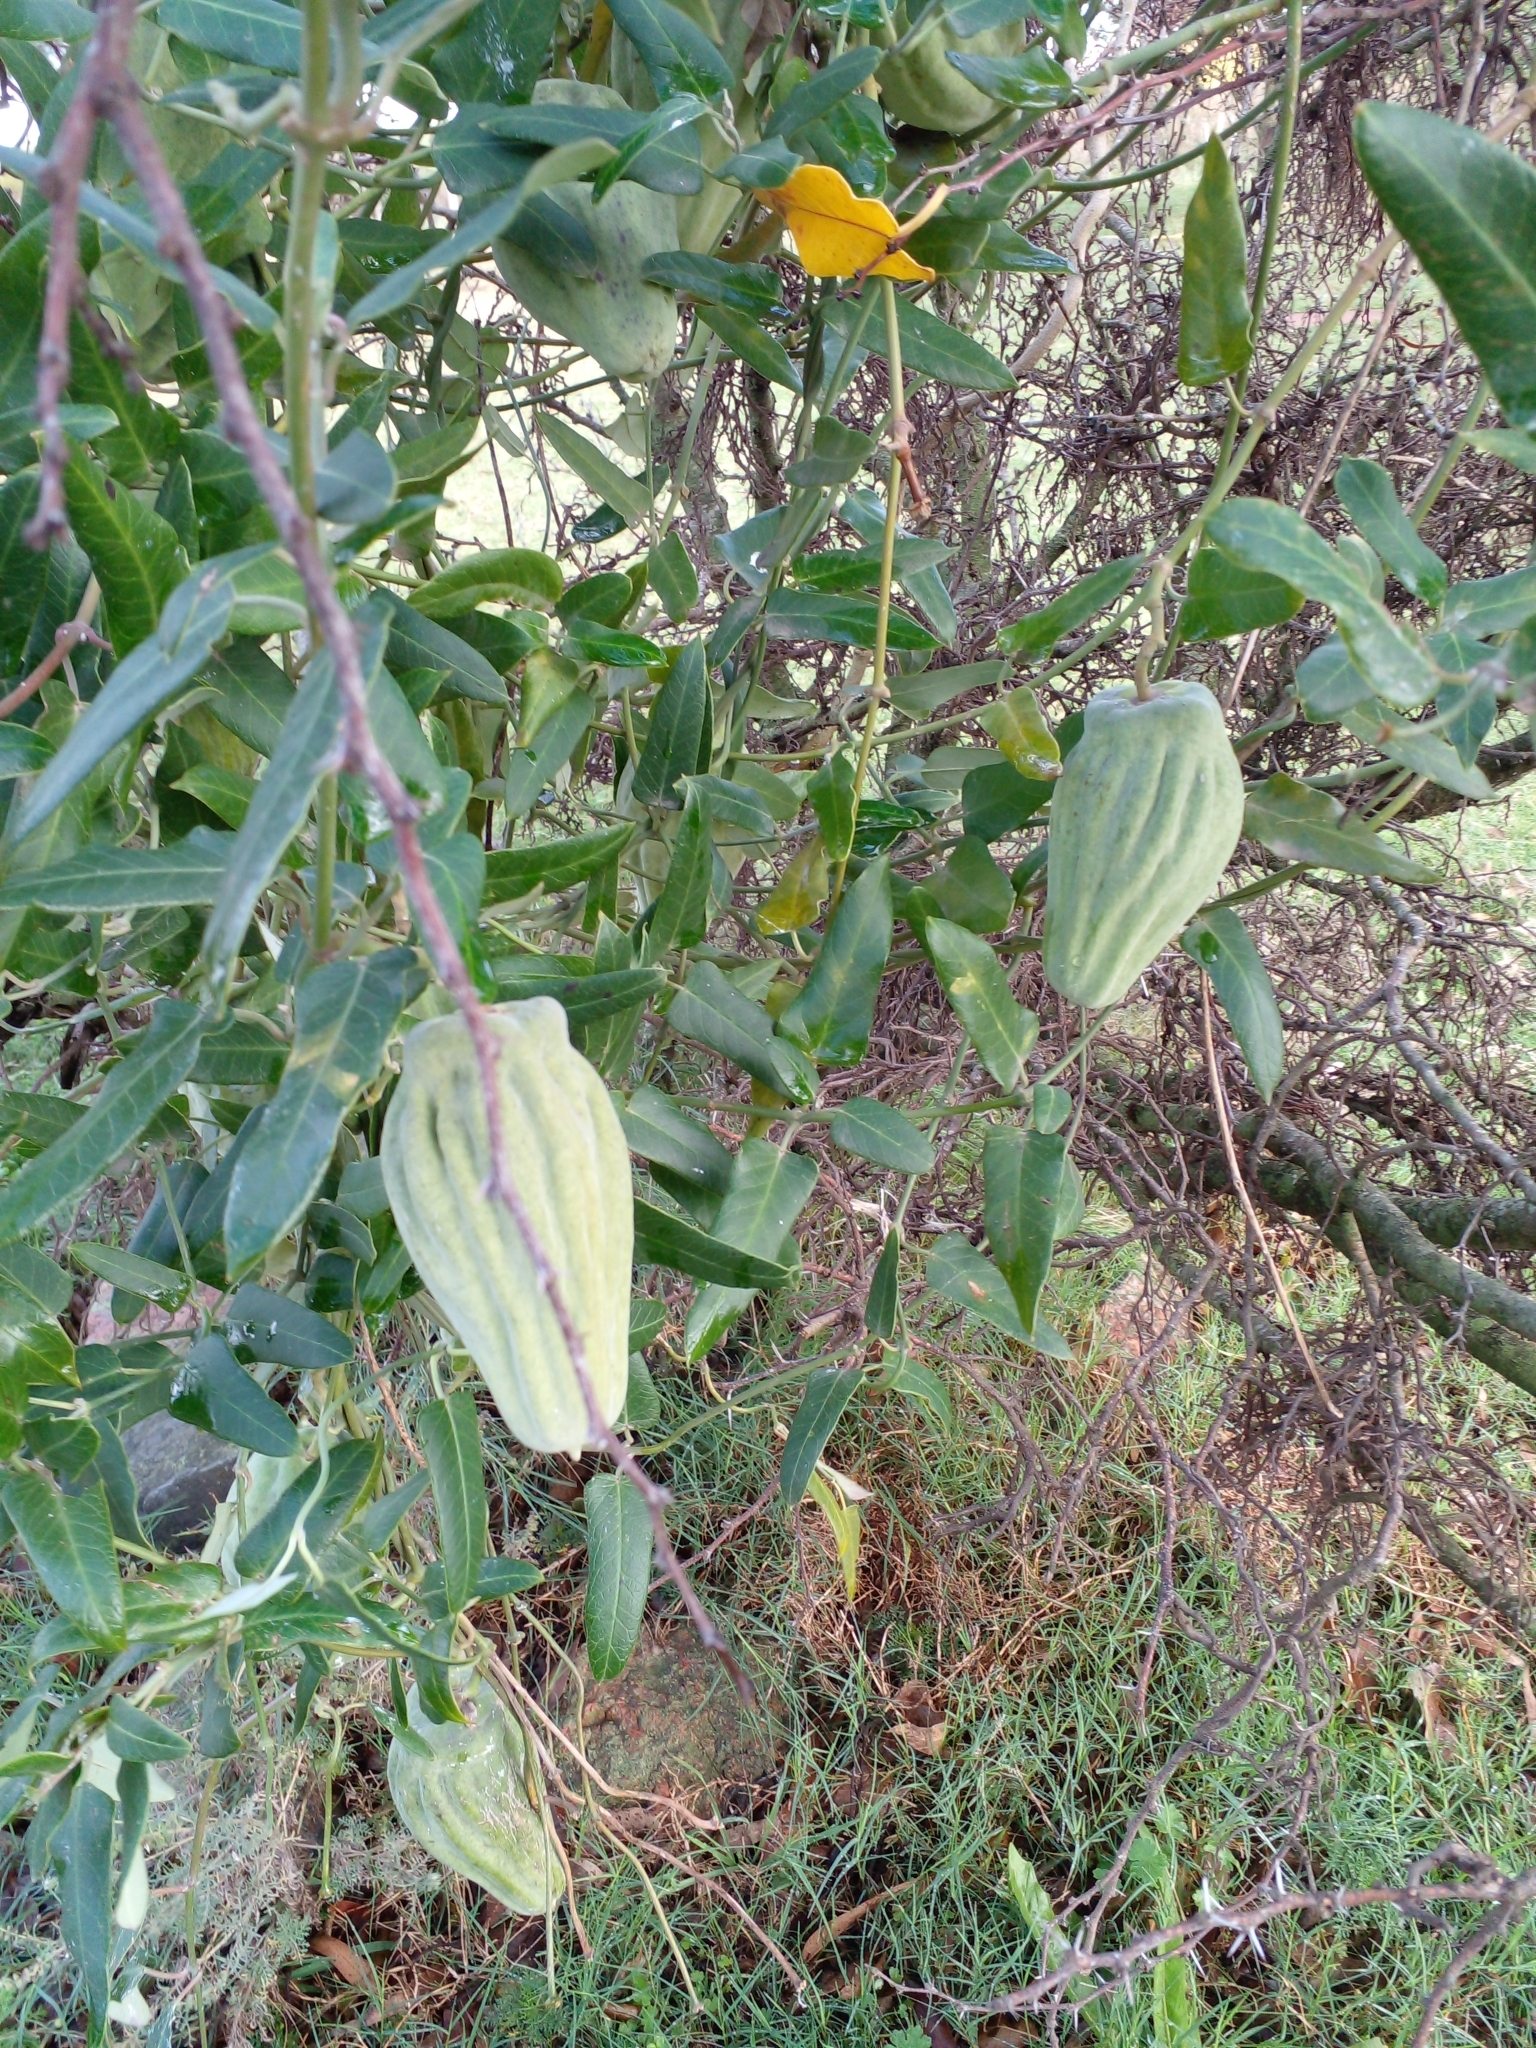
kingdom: Plantae
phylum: Tracheophyta
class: Magnoliopsida
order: Gentianales
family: Apocynaceae
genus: Araujia
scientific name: Araujia sericifera
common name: White bladderflower
